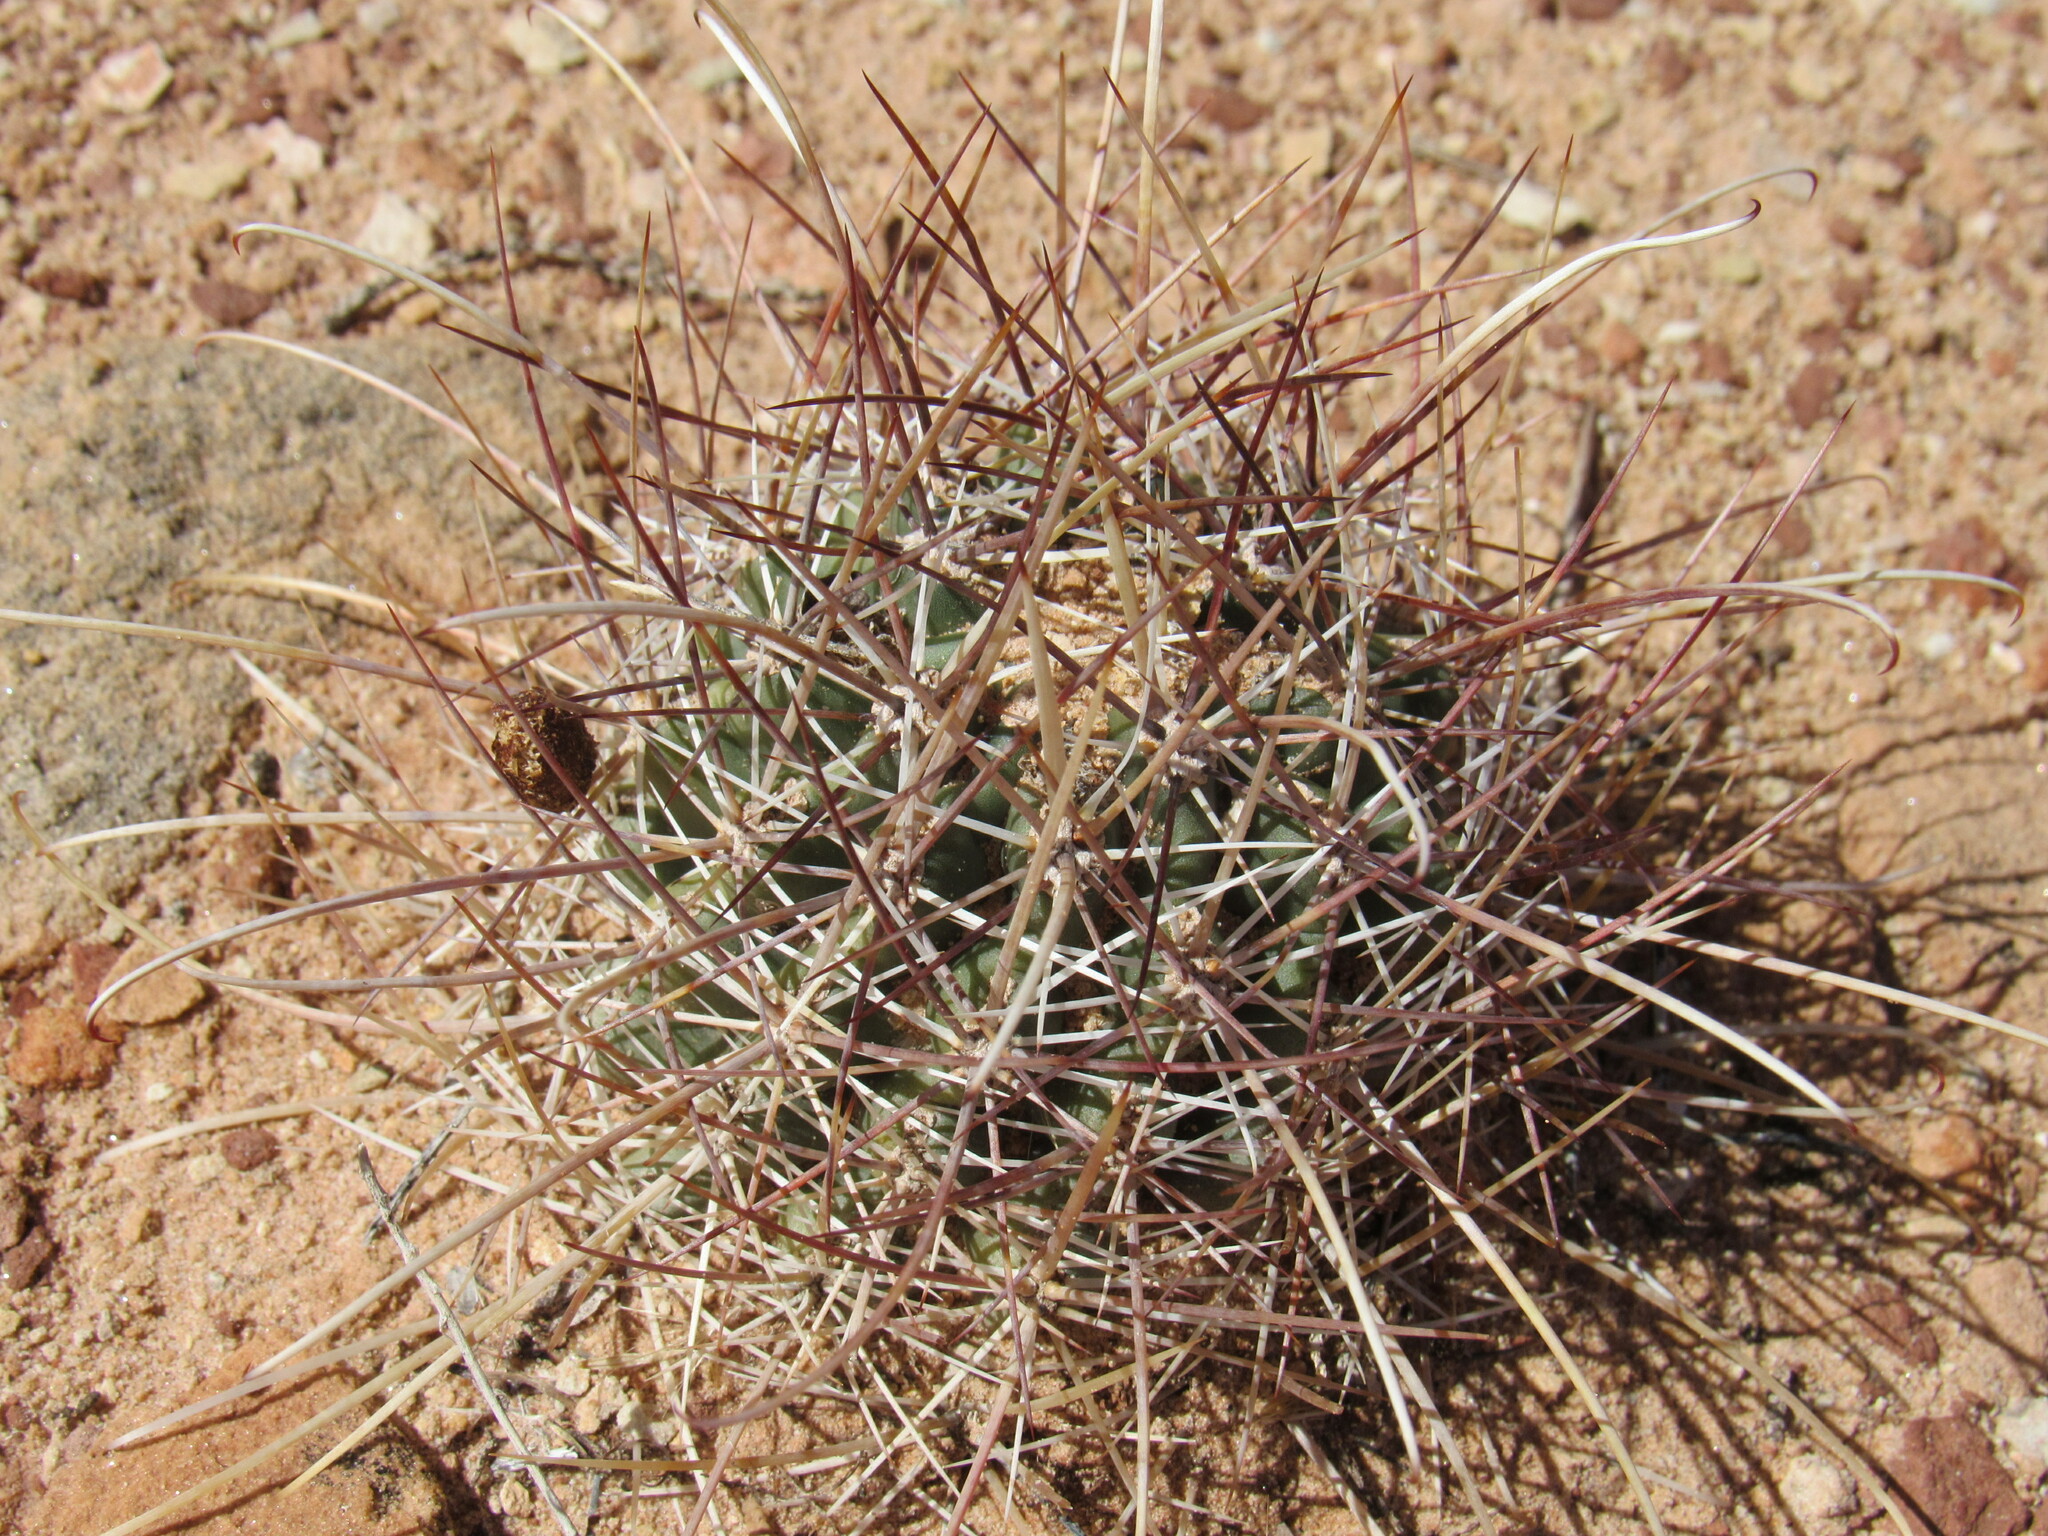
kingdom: Plantae
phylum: Tracheophyta
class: Magnoliopsida
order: Caryophyllales
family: Cactaceae
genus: Sclerocactus
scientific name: Sclerocactus parviflorus
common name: Small-flower fishhook cactus
